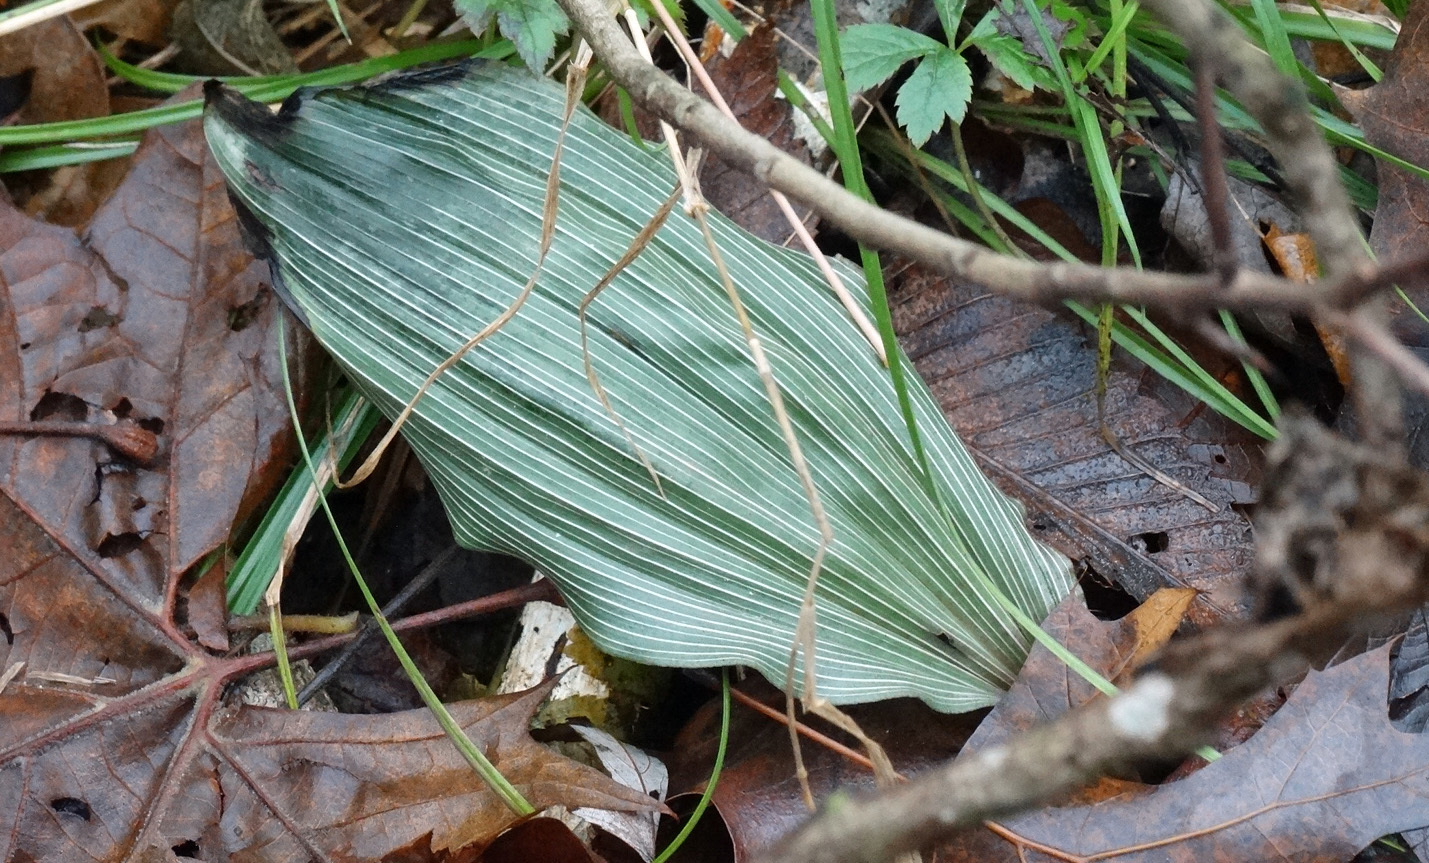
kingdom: Plantae
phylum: Tracheophyta
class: Liliopsida
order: Asparagales
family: Orchidaceae
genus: Aplectrum
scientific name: Aplectrum hyemale
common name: Adam-and-eve
